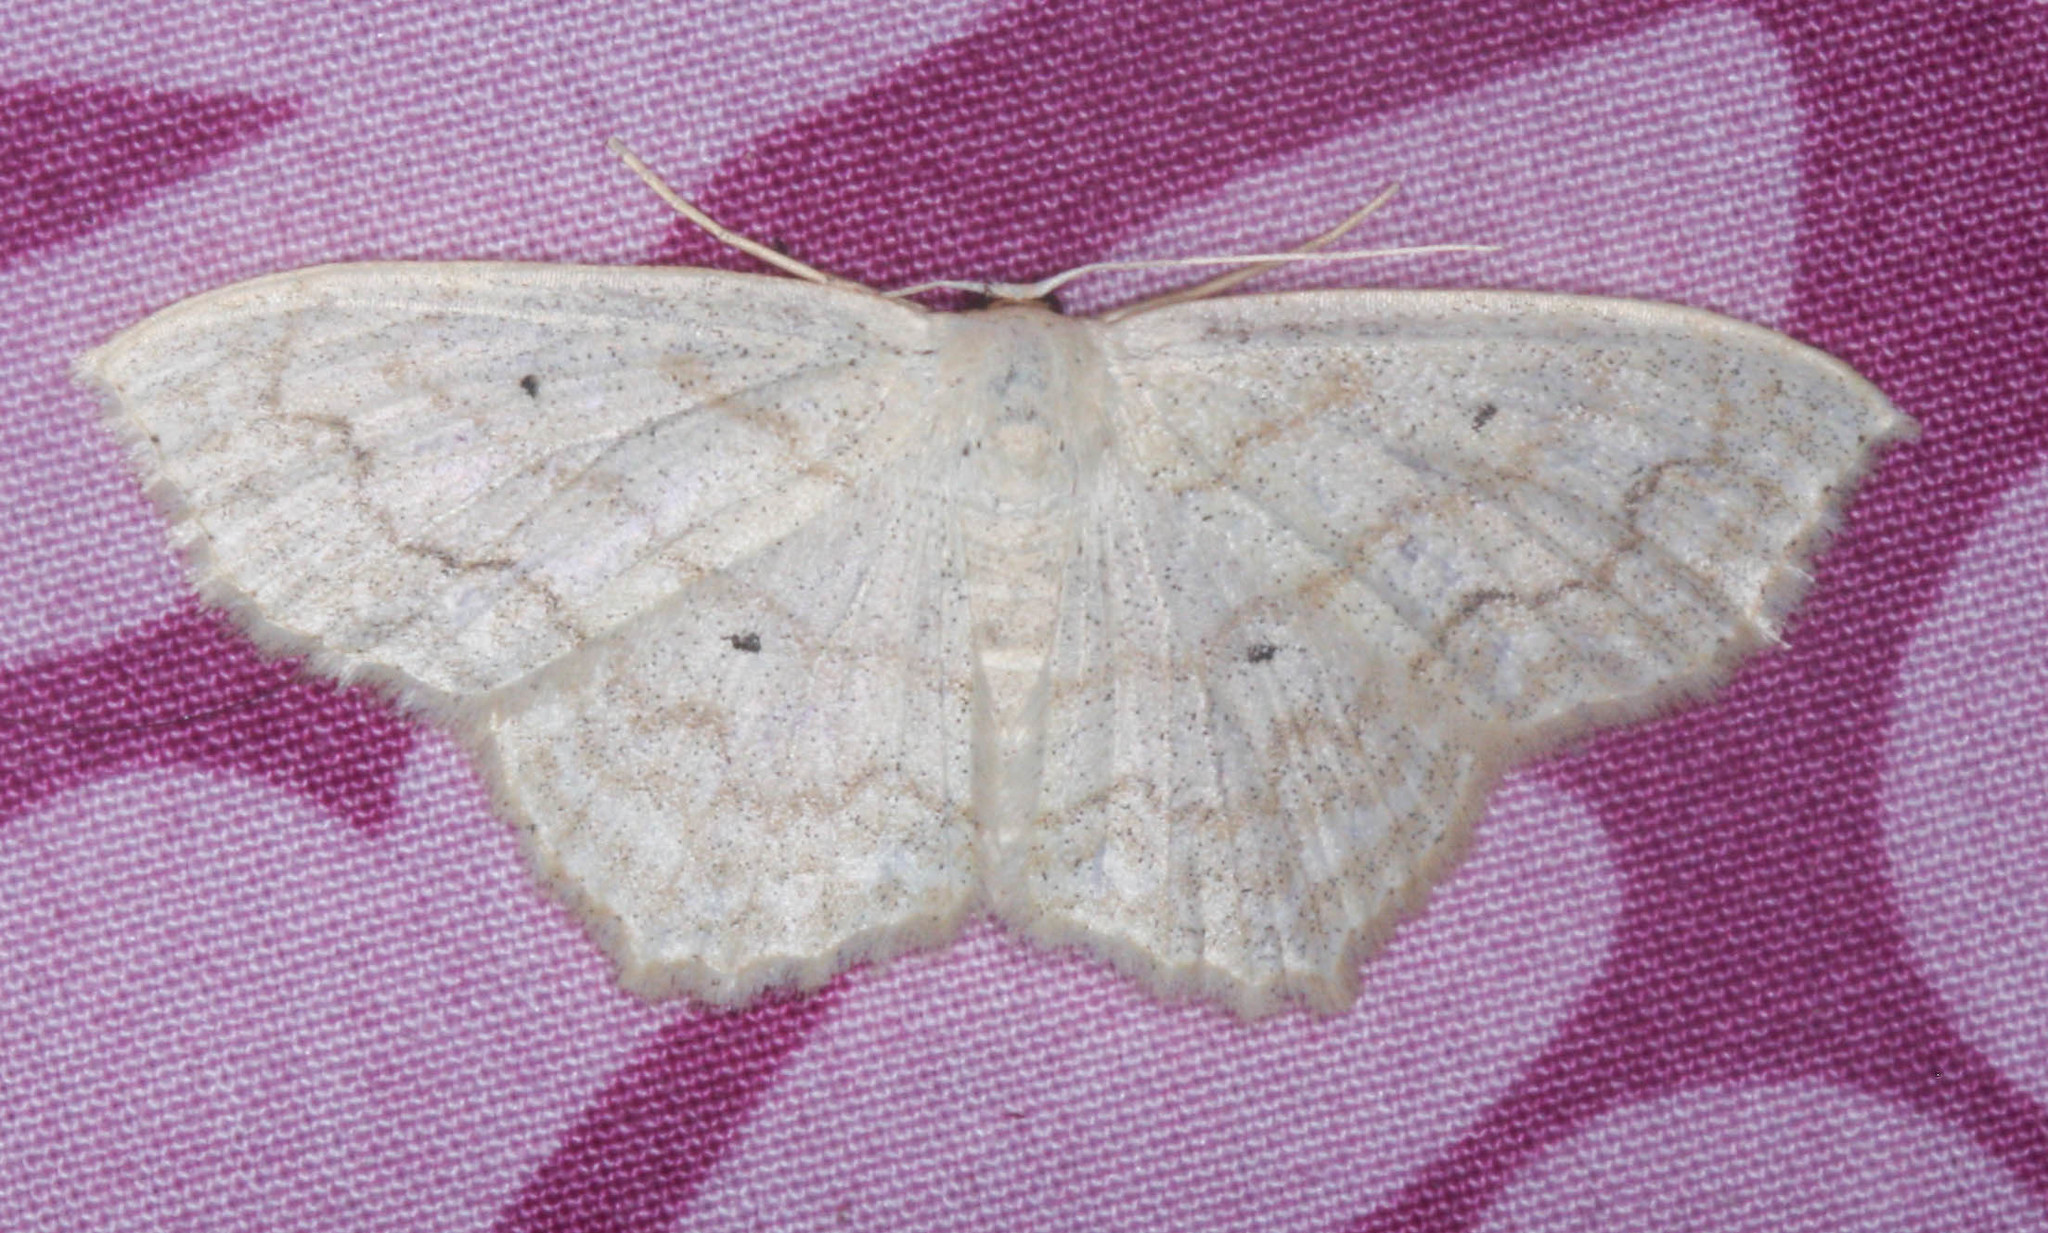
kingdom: Animalia
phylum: Arthropoda
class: Insecta
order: Lepidoptera
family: Geometridae
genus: Scopula
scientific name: Scopula limboundata
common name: Large lace border
